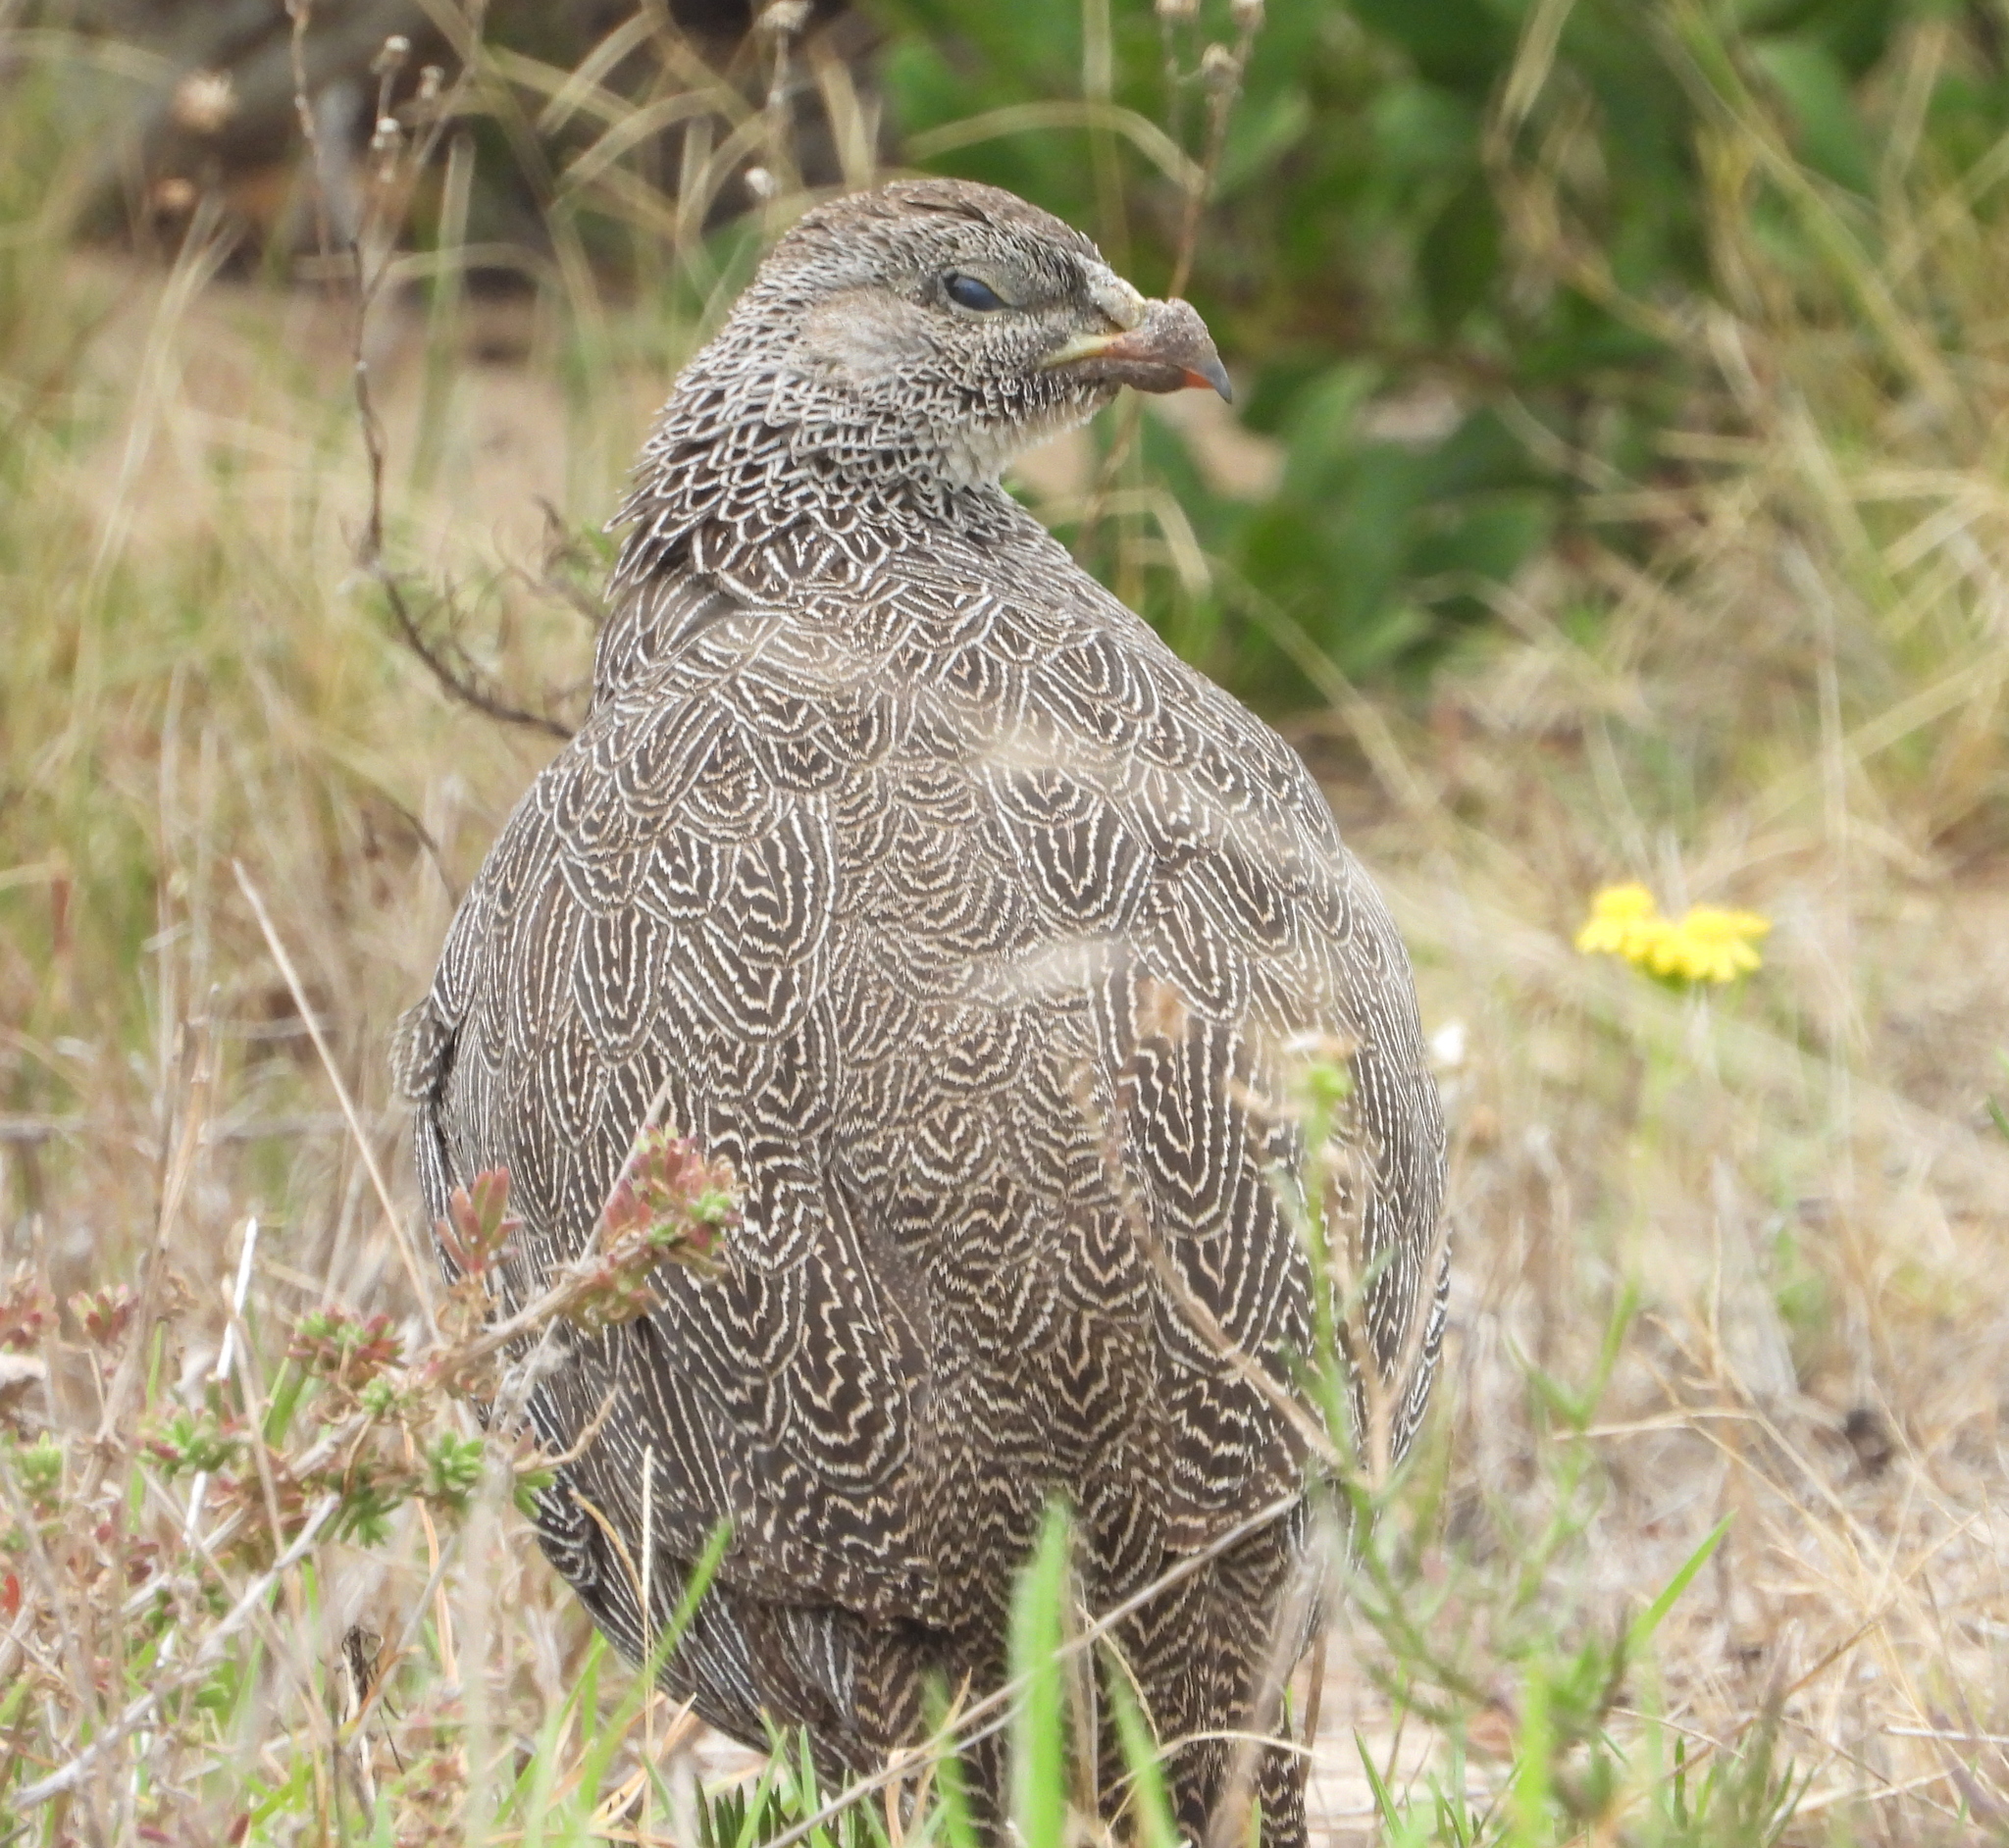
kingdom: Animalia
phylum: Chordata
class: Aves
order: Galliformes
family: Phasianidae
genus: Pternistis
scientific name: Pternistis capensis
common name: Cape spurfowl
